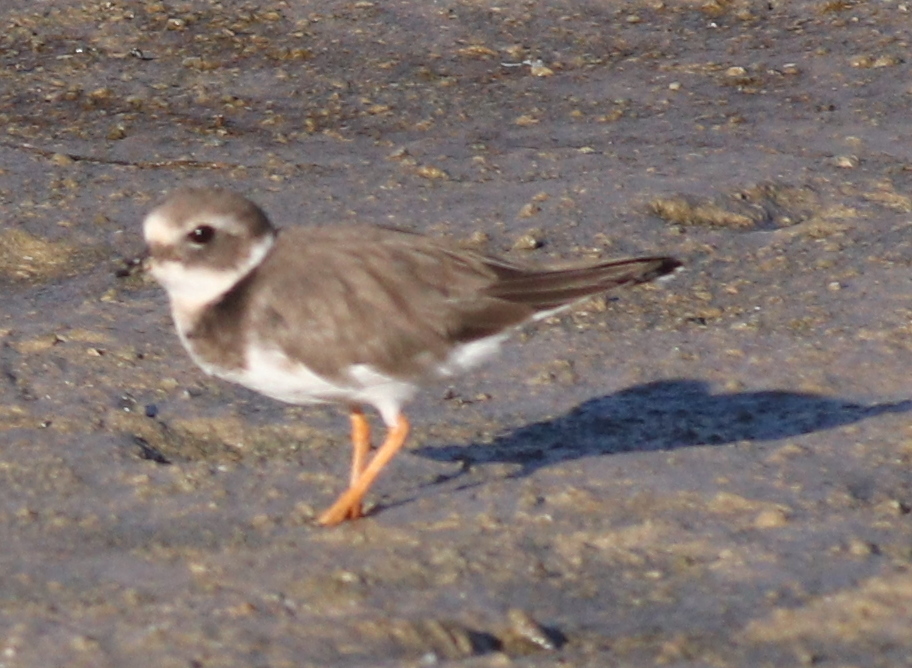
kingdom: Animalia
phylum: Chordata
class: Aves
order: Charadriiformes
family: Charadriidae
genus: Charadrius
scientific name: Charadrius hiaticula
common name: Common ringed plover
